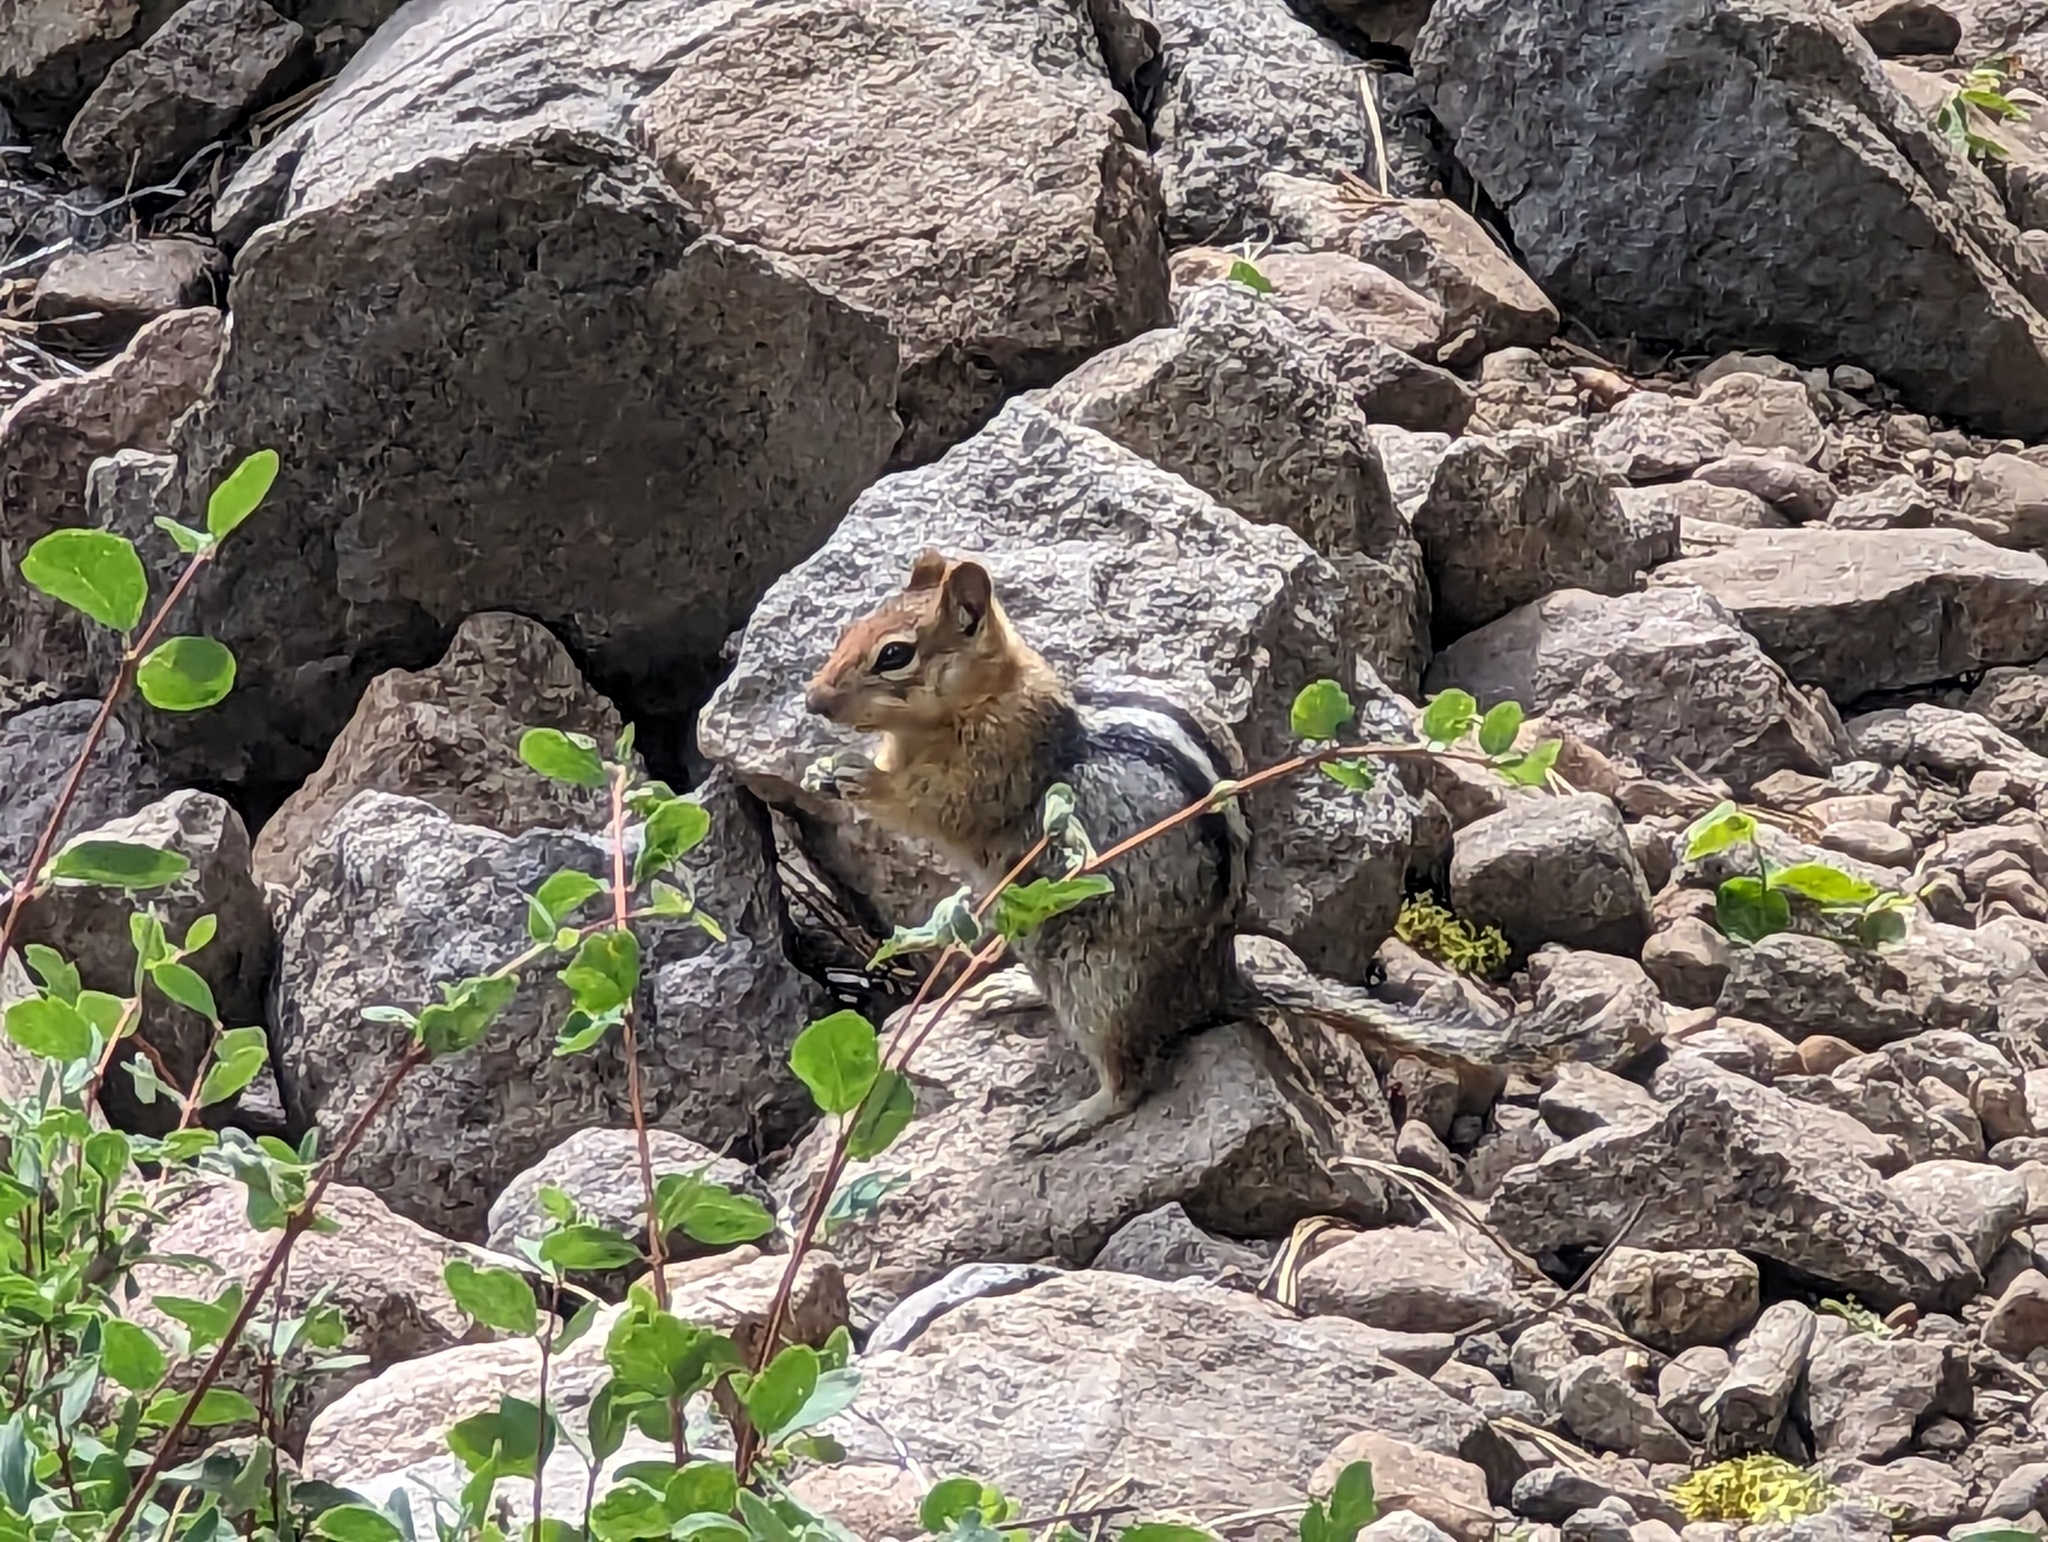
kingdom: Animalia
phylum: Chordata
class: Mammalia
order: Rodentia
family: Sciuridae
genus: Callospermophilus
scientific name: Callospermophilus lateralis
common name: Golden-mantled ground squirrel
